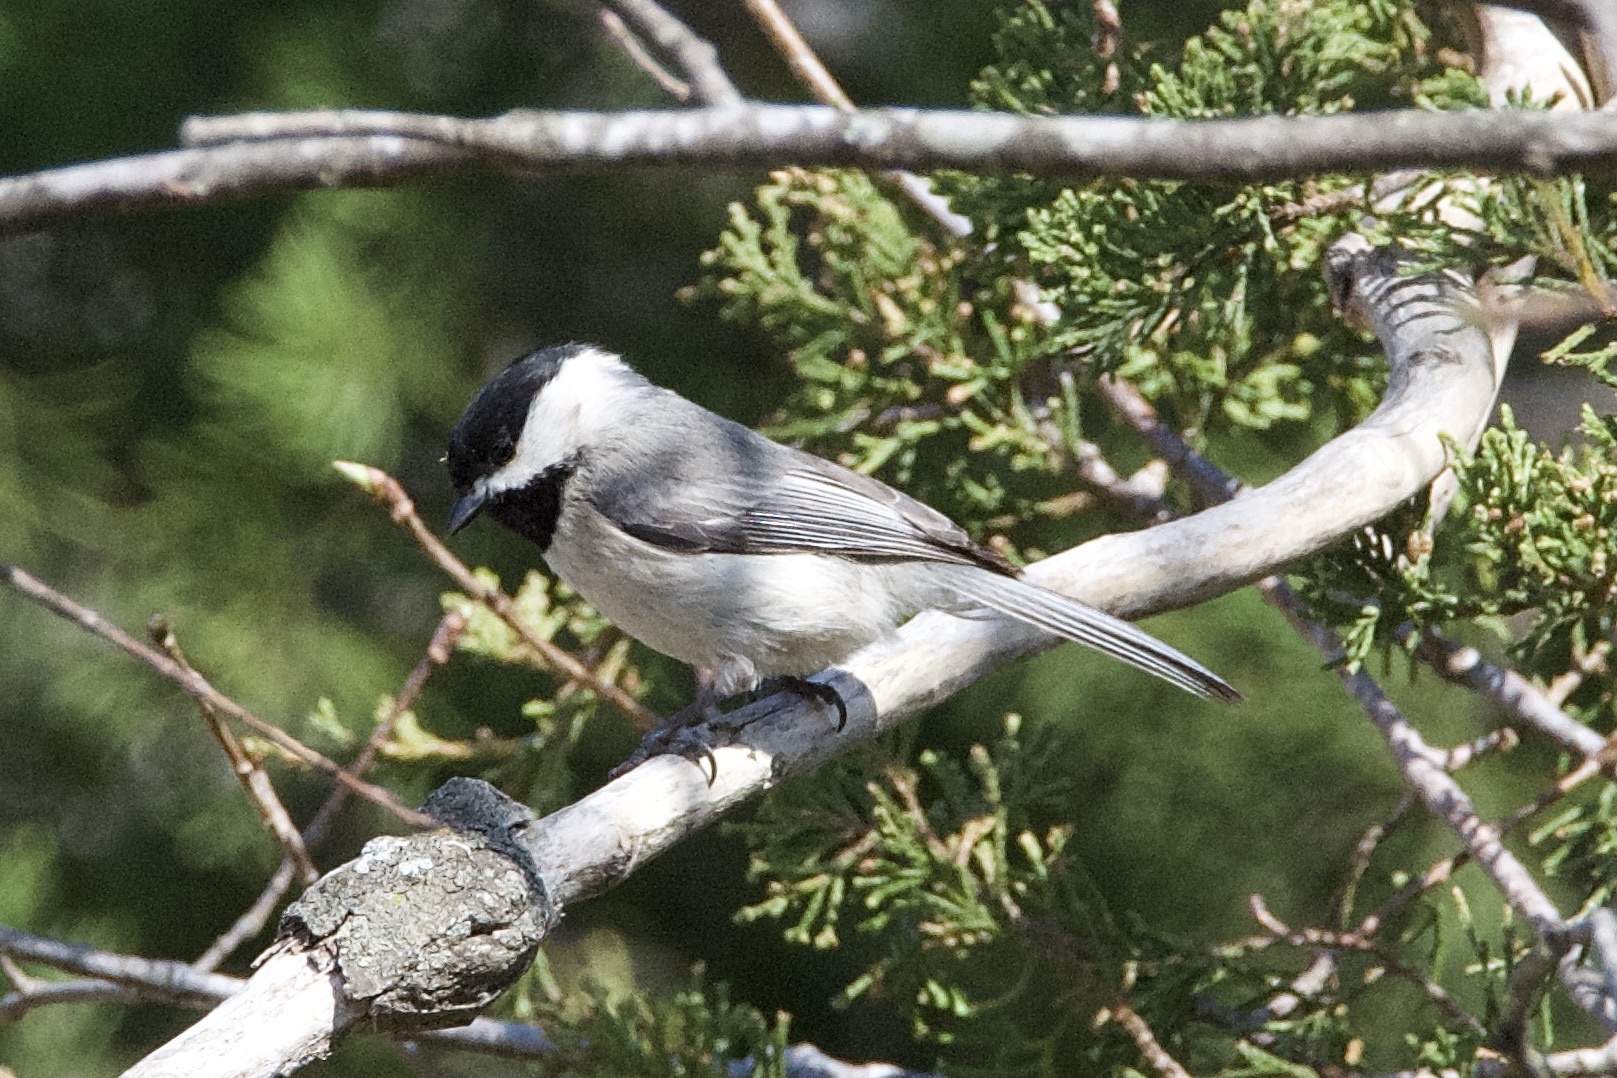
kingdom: Animalia
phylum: Chordata
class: Aves
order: Passeriformes
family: Paridae
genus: Poecile
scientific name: Poecile carolinensis
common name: Carolina chickadee
